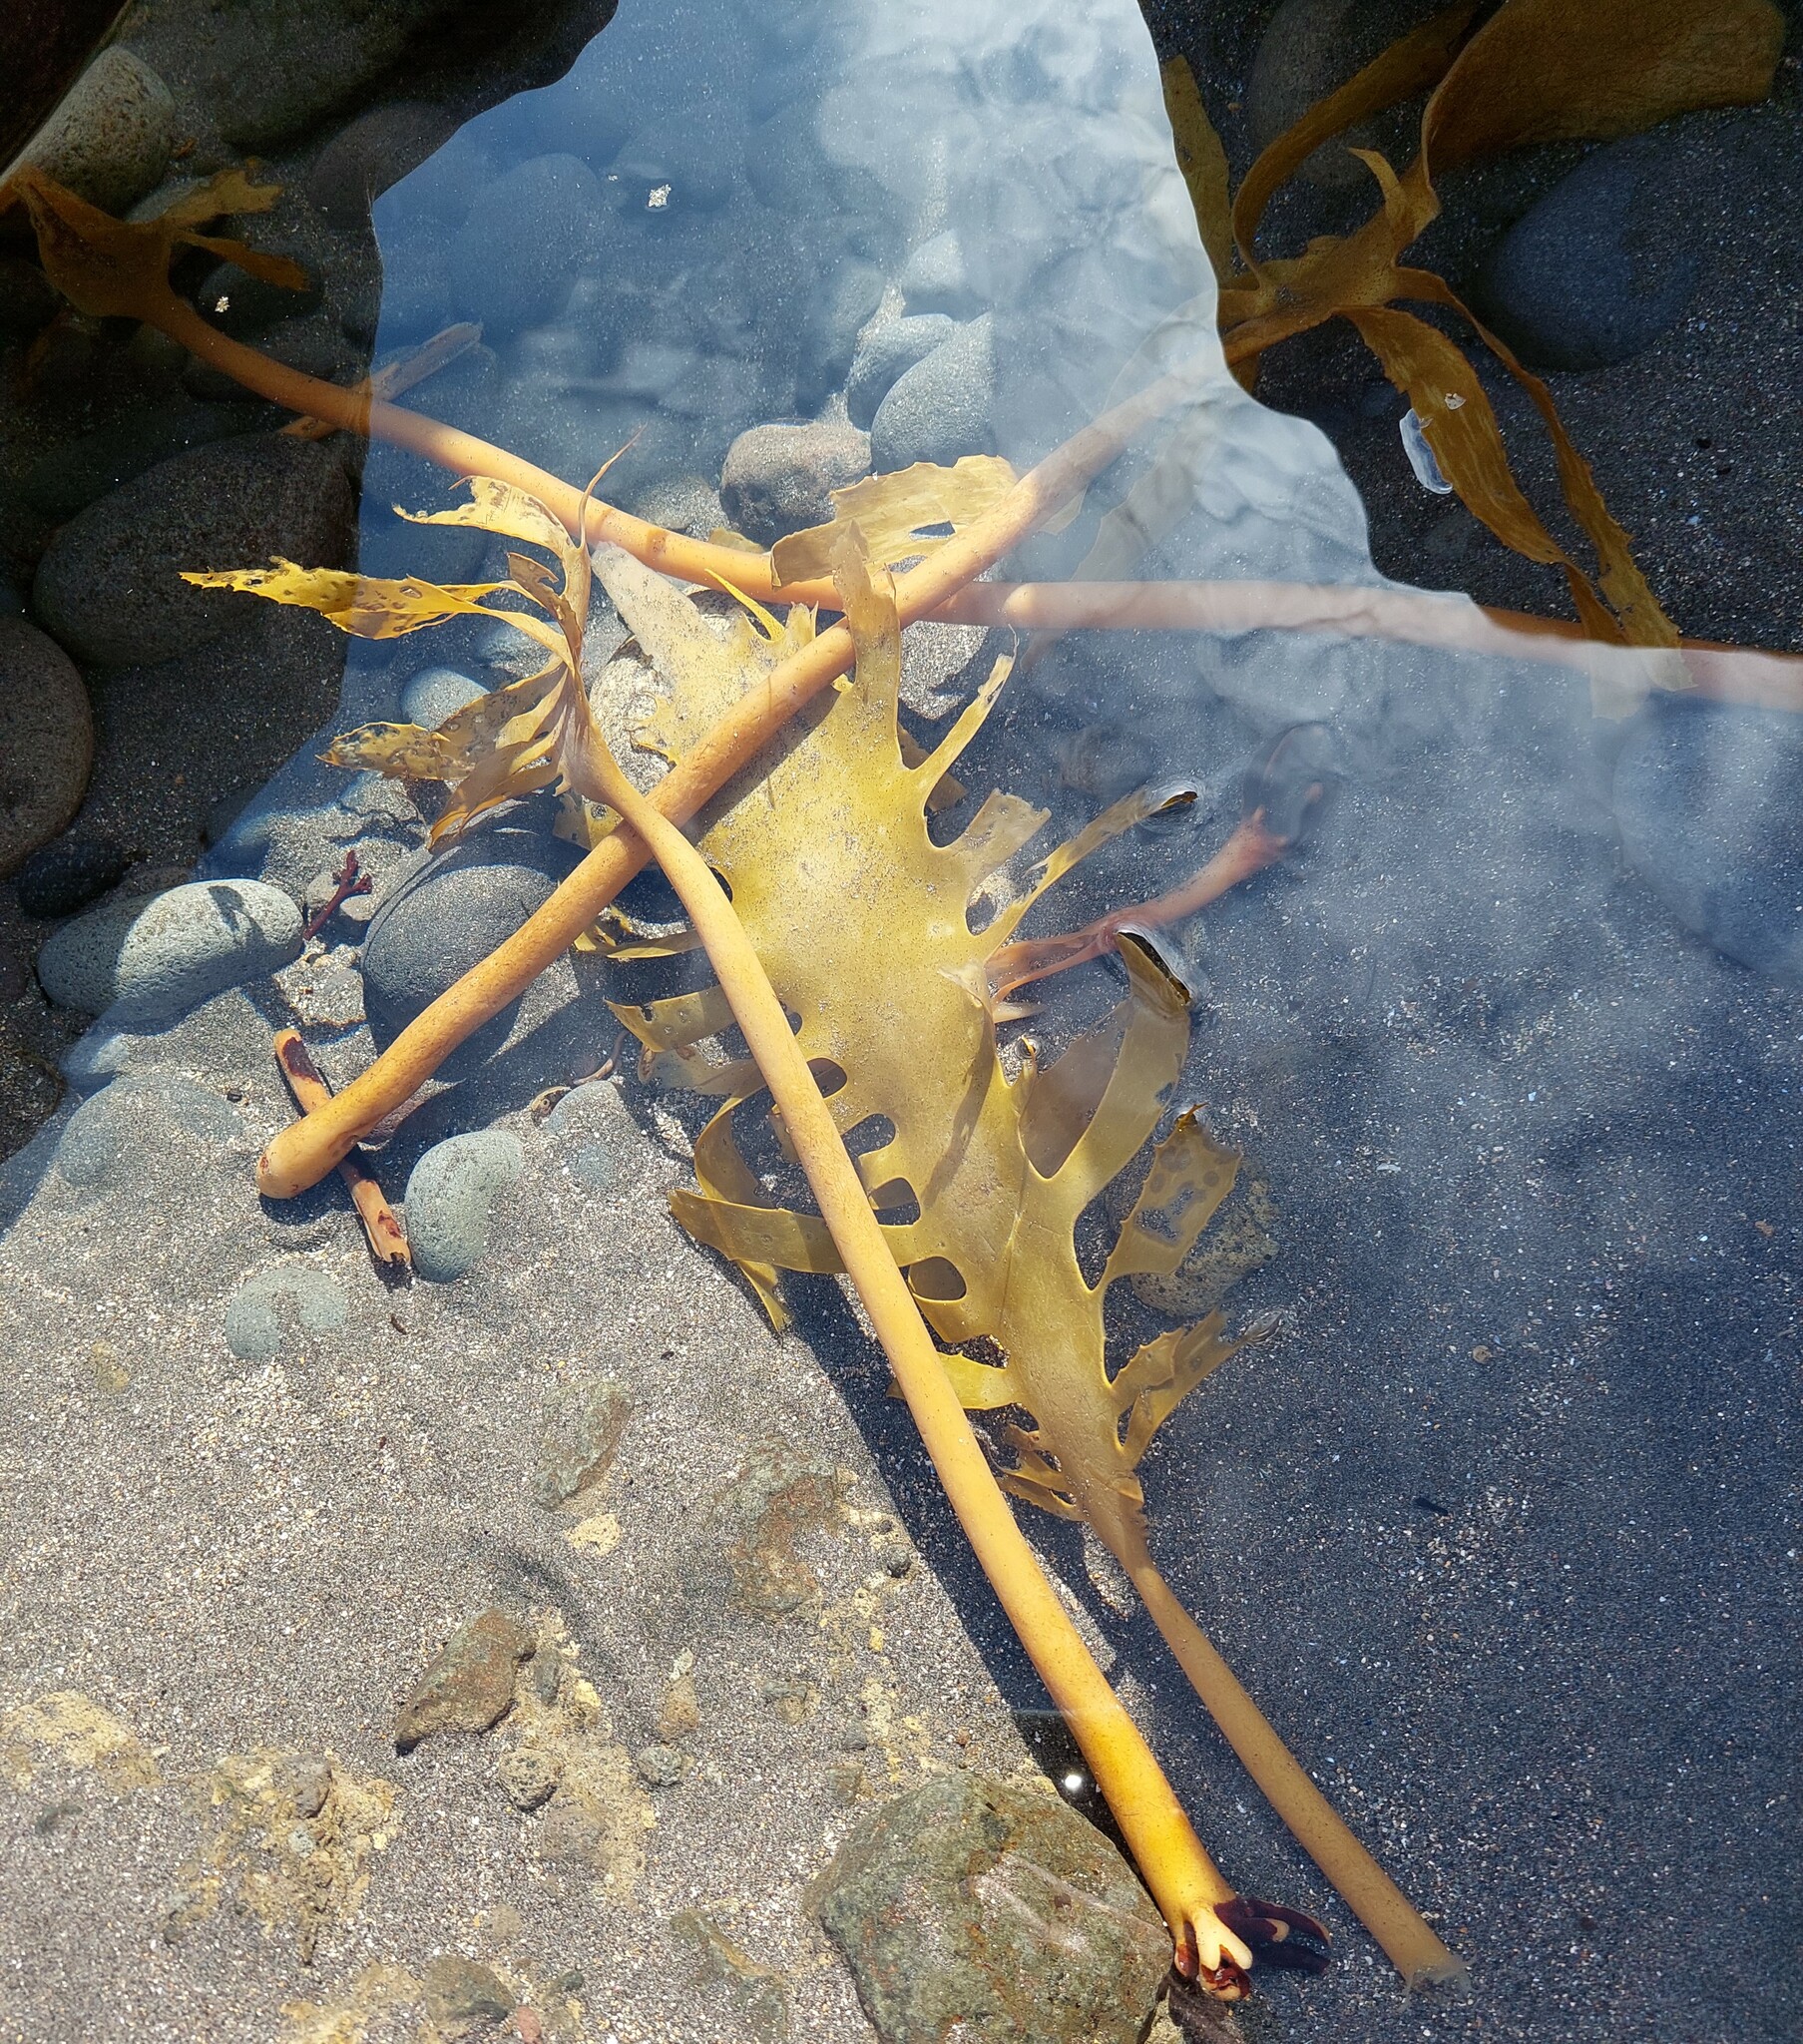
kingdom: Chromista
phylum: Ochrophyta
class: Phaeophyceae
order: Laminariales
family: Lessoniaceae
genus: Ecklonia
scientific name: Ecklonia radiata
